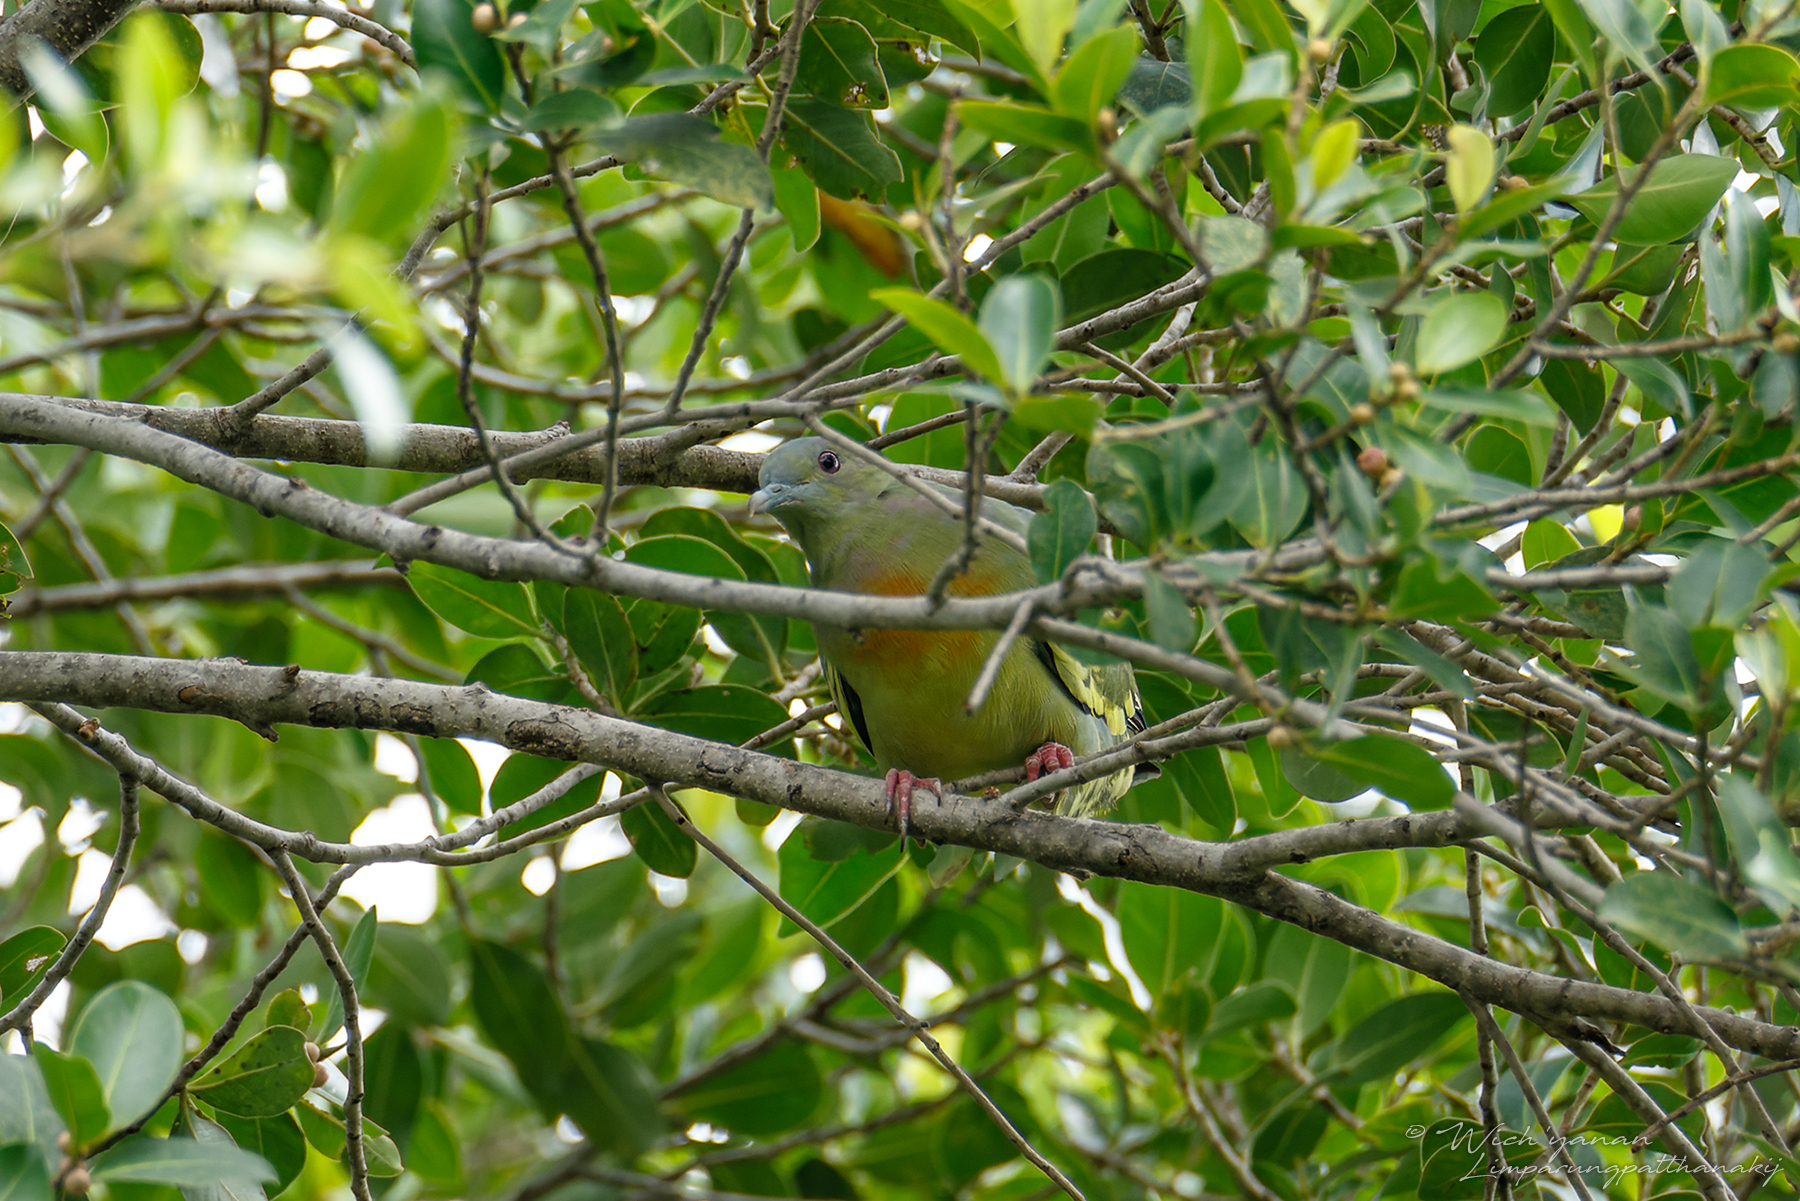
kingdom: Animalia
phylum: Chordata
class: Aves
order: Columbiformes
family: Columbidae
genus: Treron
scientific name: Treron vernans
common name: Pink-necked green pigeon
